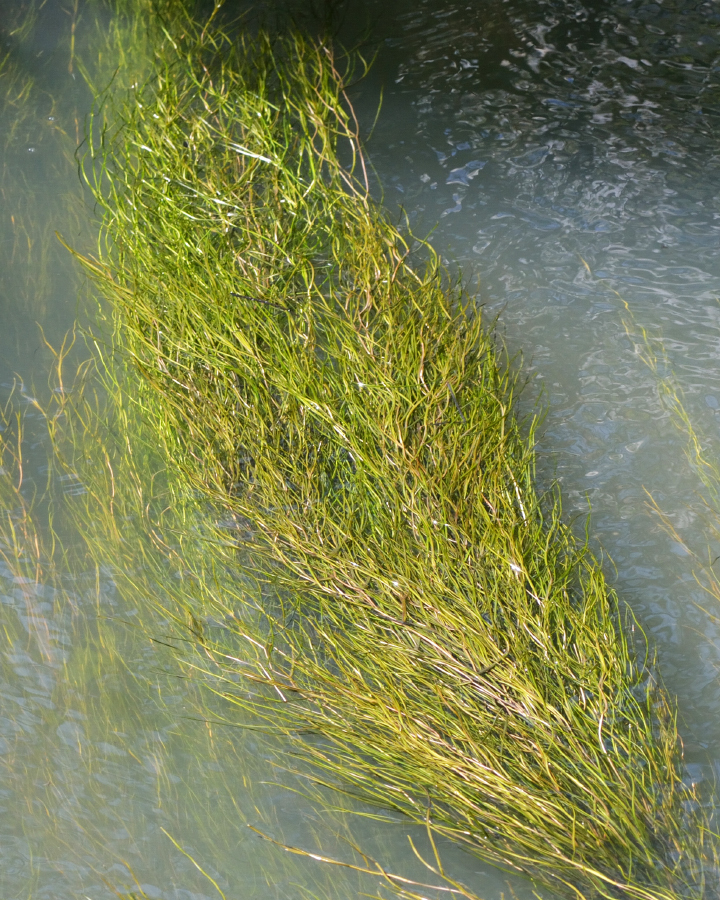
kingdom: Plantae
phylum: Tracheophyta
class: Liliopsida
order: Alismatales
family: Potamogetonaceae
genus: Stuckenia
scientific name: Stuckenia pectinata
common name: Sago pondweed
